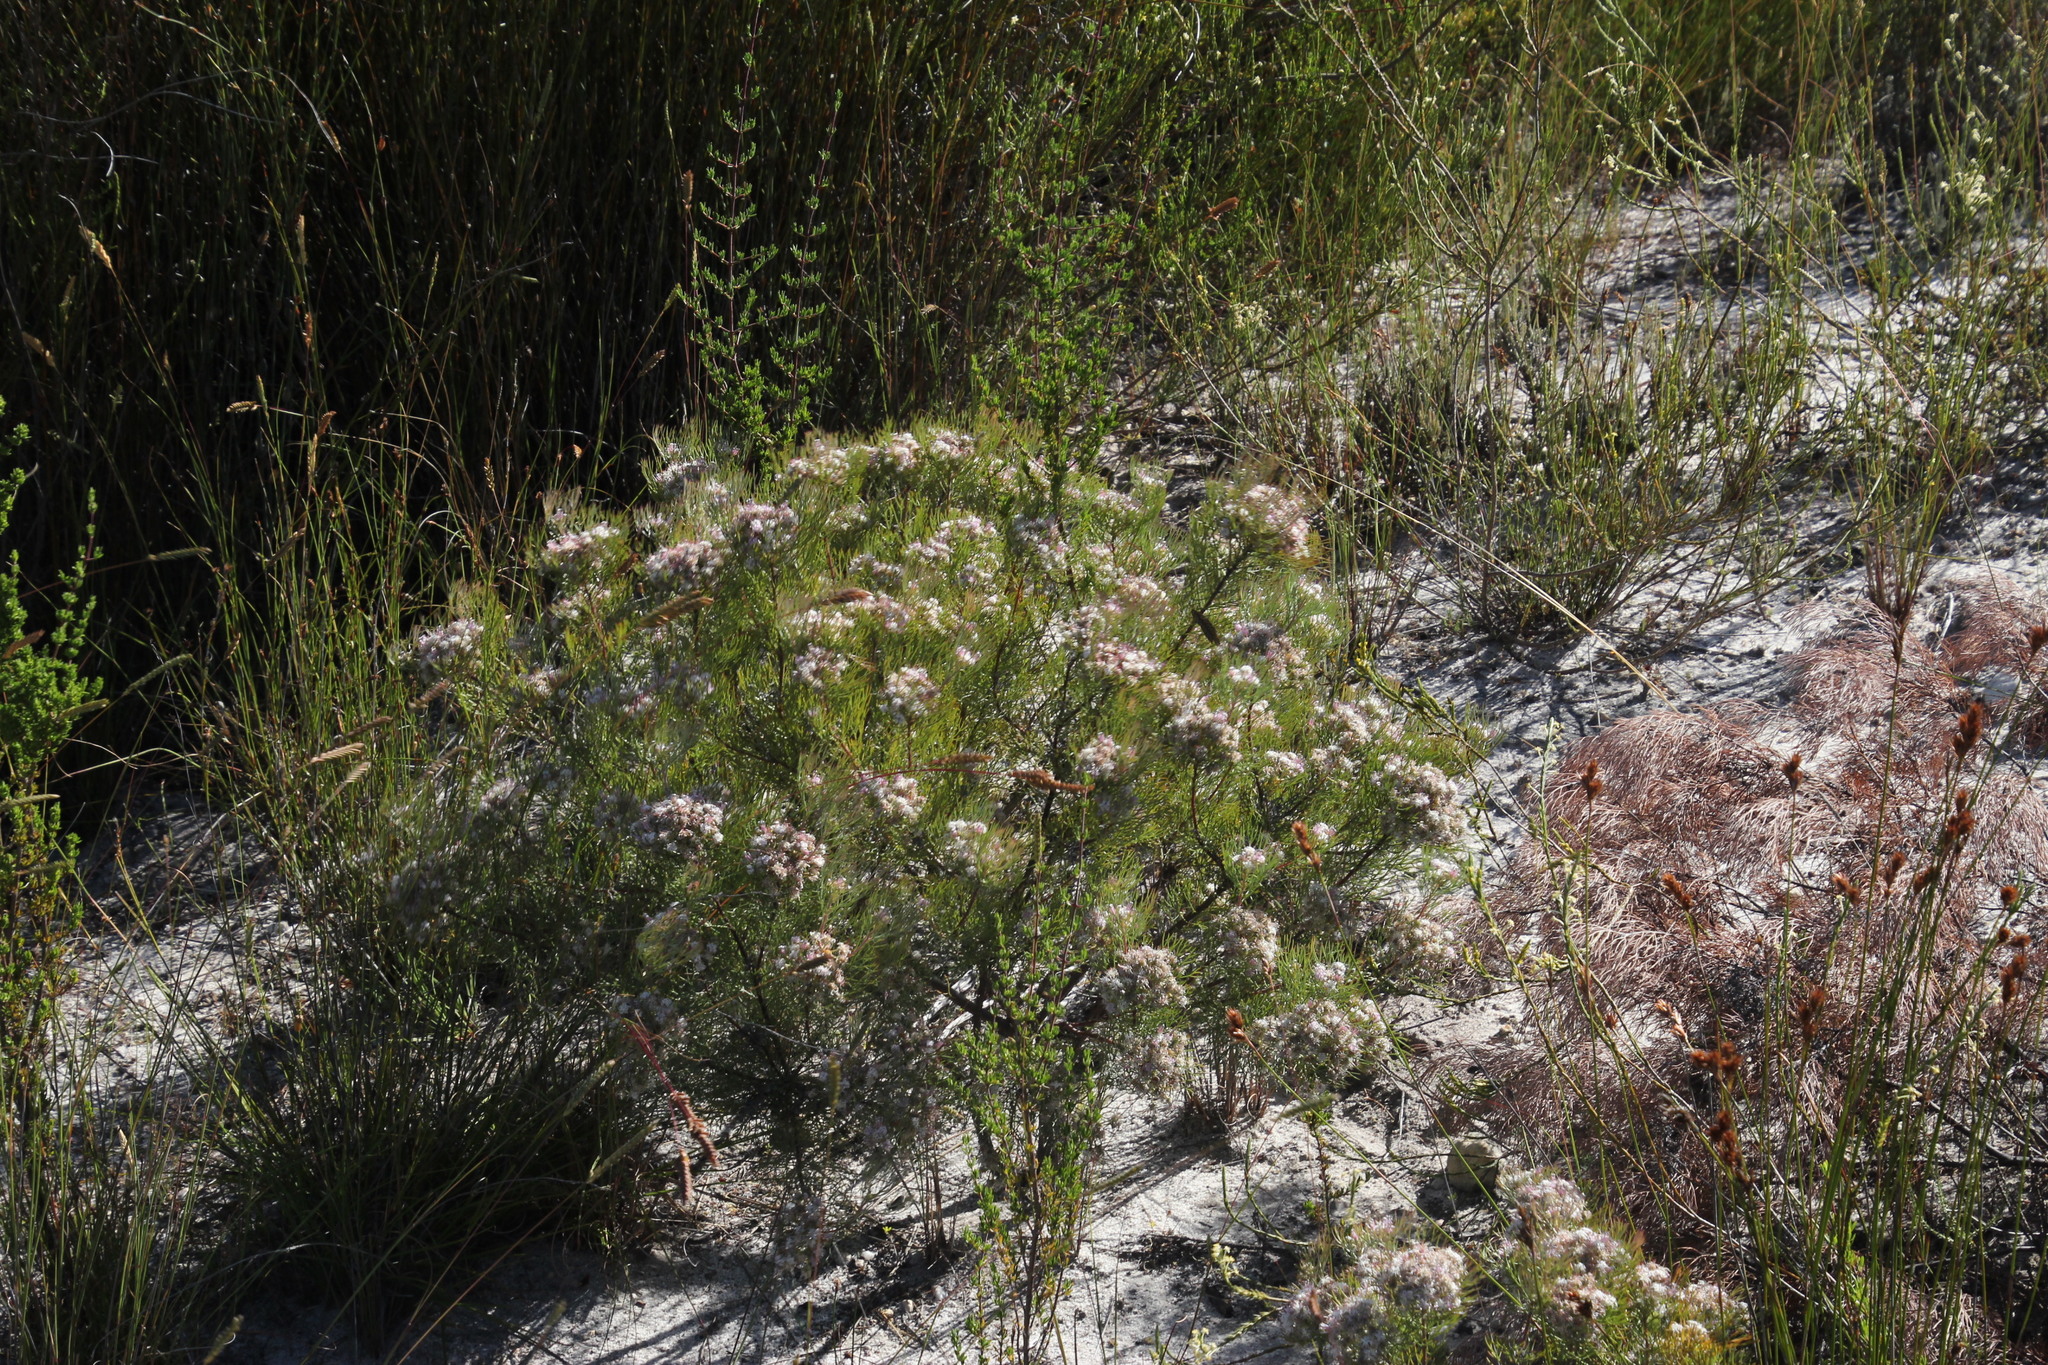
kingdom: Plantae
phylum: Tracheophyta
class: Magnoliopsida
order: Proteales
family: Proteaceae
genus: Serruria
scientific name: Serruria fasciflora
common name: Common pin spiderhead
